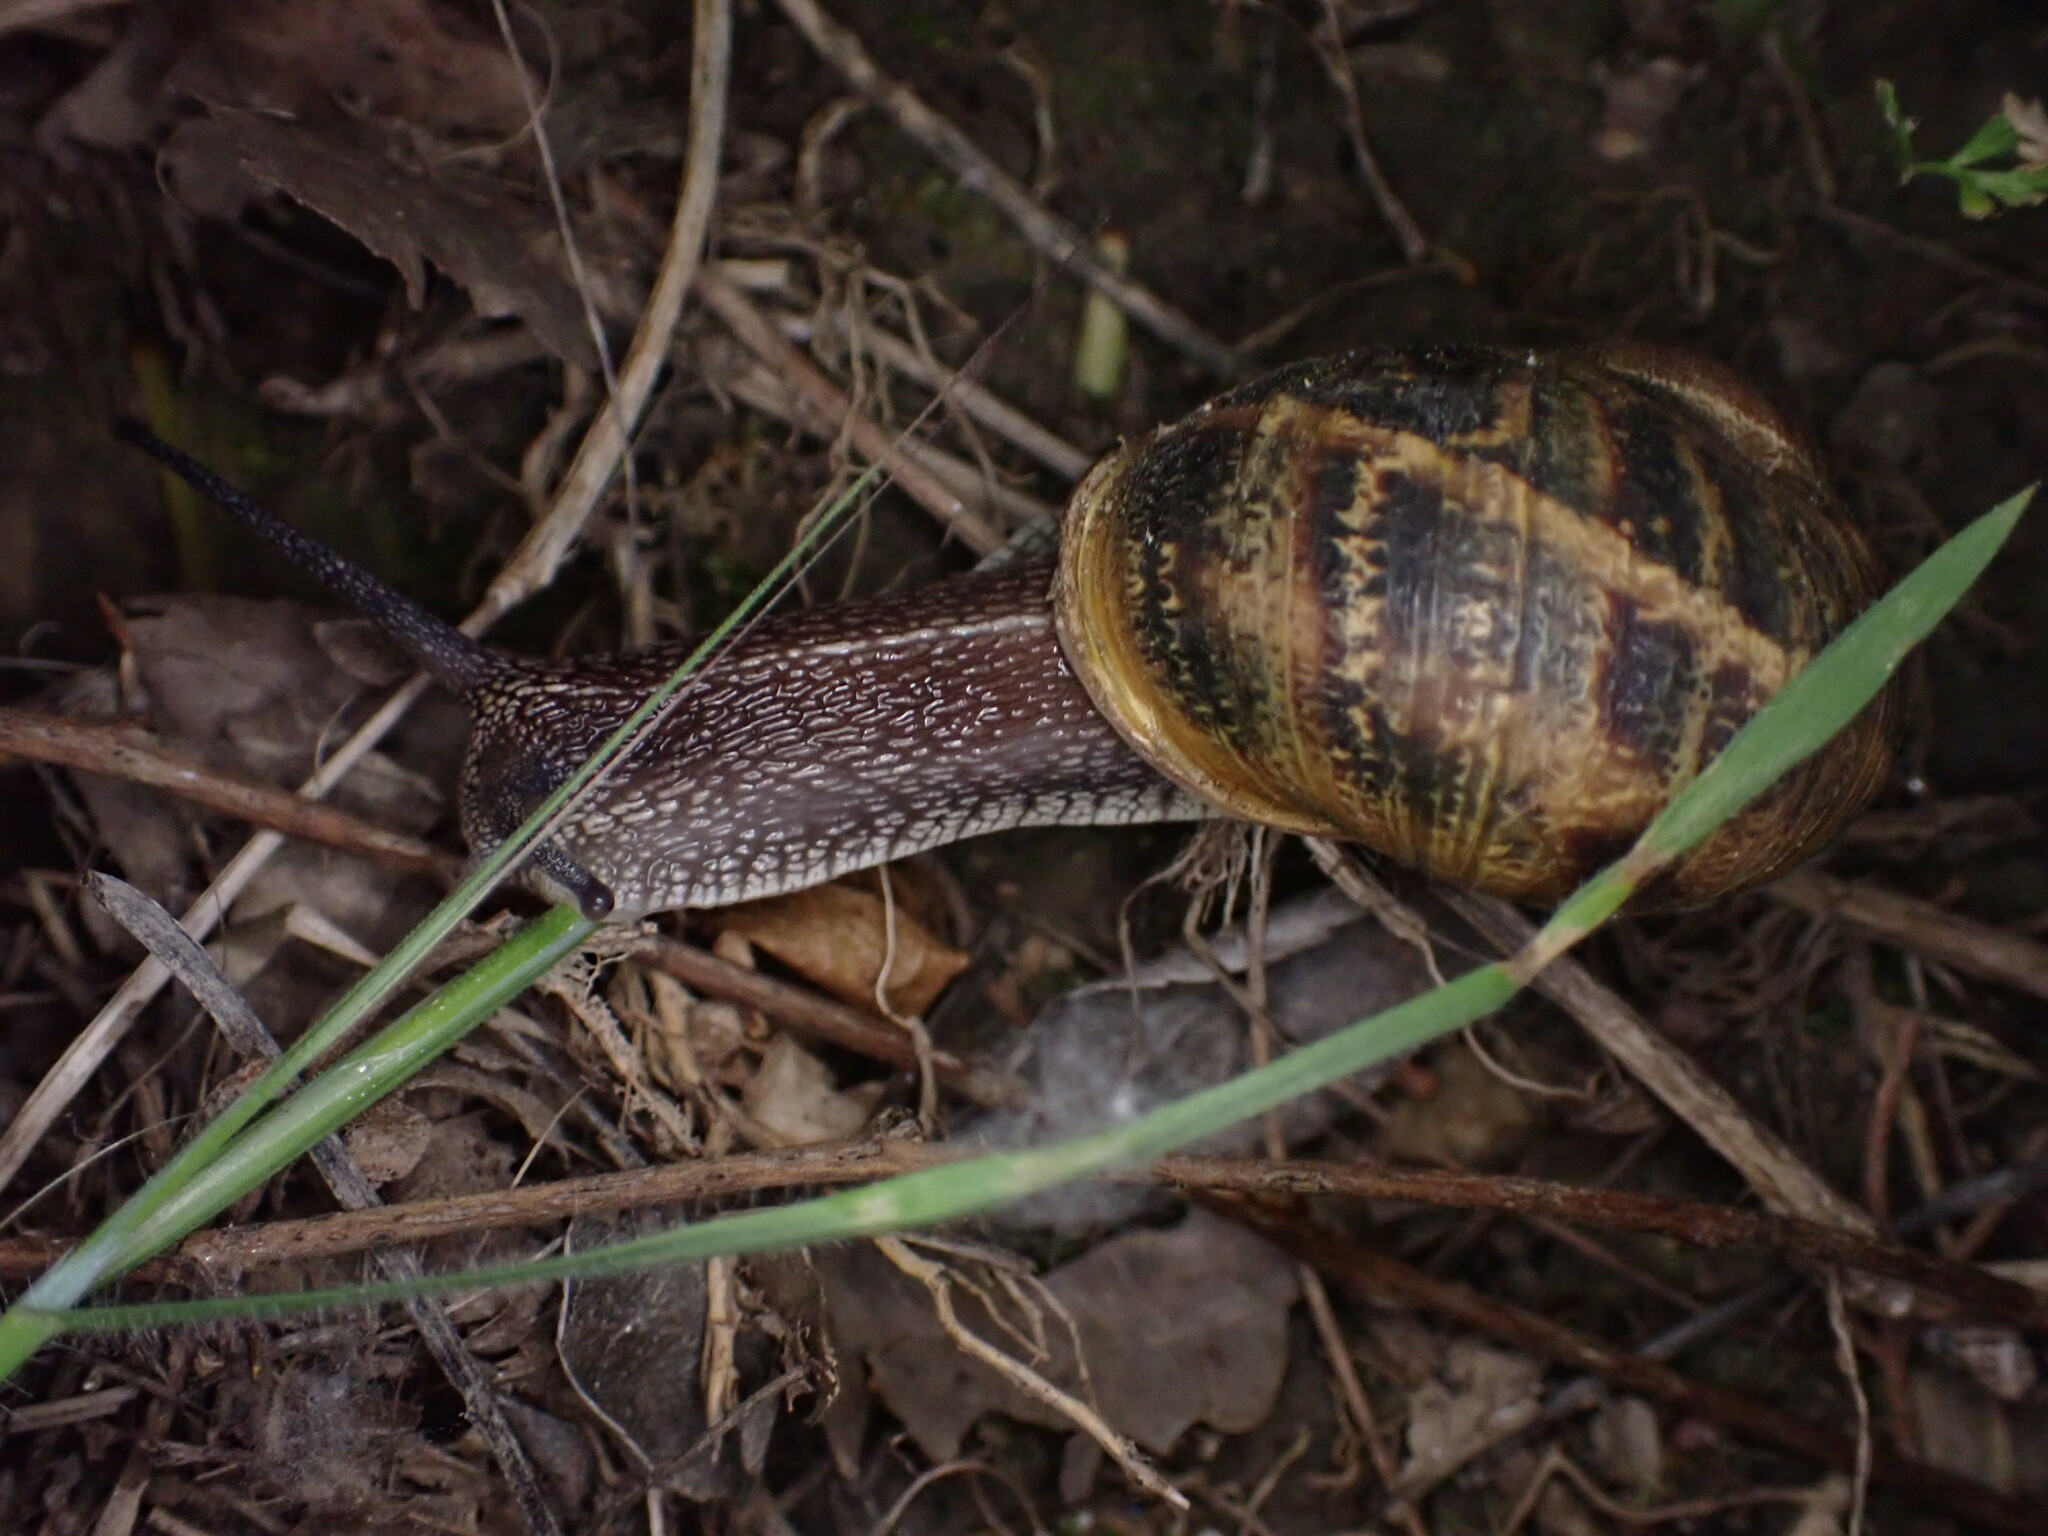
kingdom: Animalia
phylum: Mollusca
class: Gastropoda
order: Stylommatophora
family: Helicidae
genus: Cornu
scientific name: Cornu aspersum
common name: Brown garden snail
